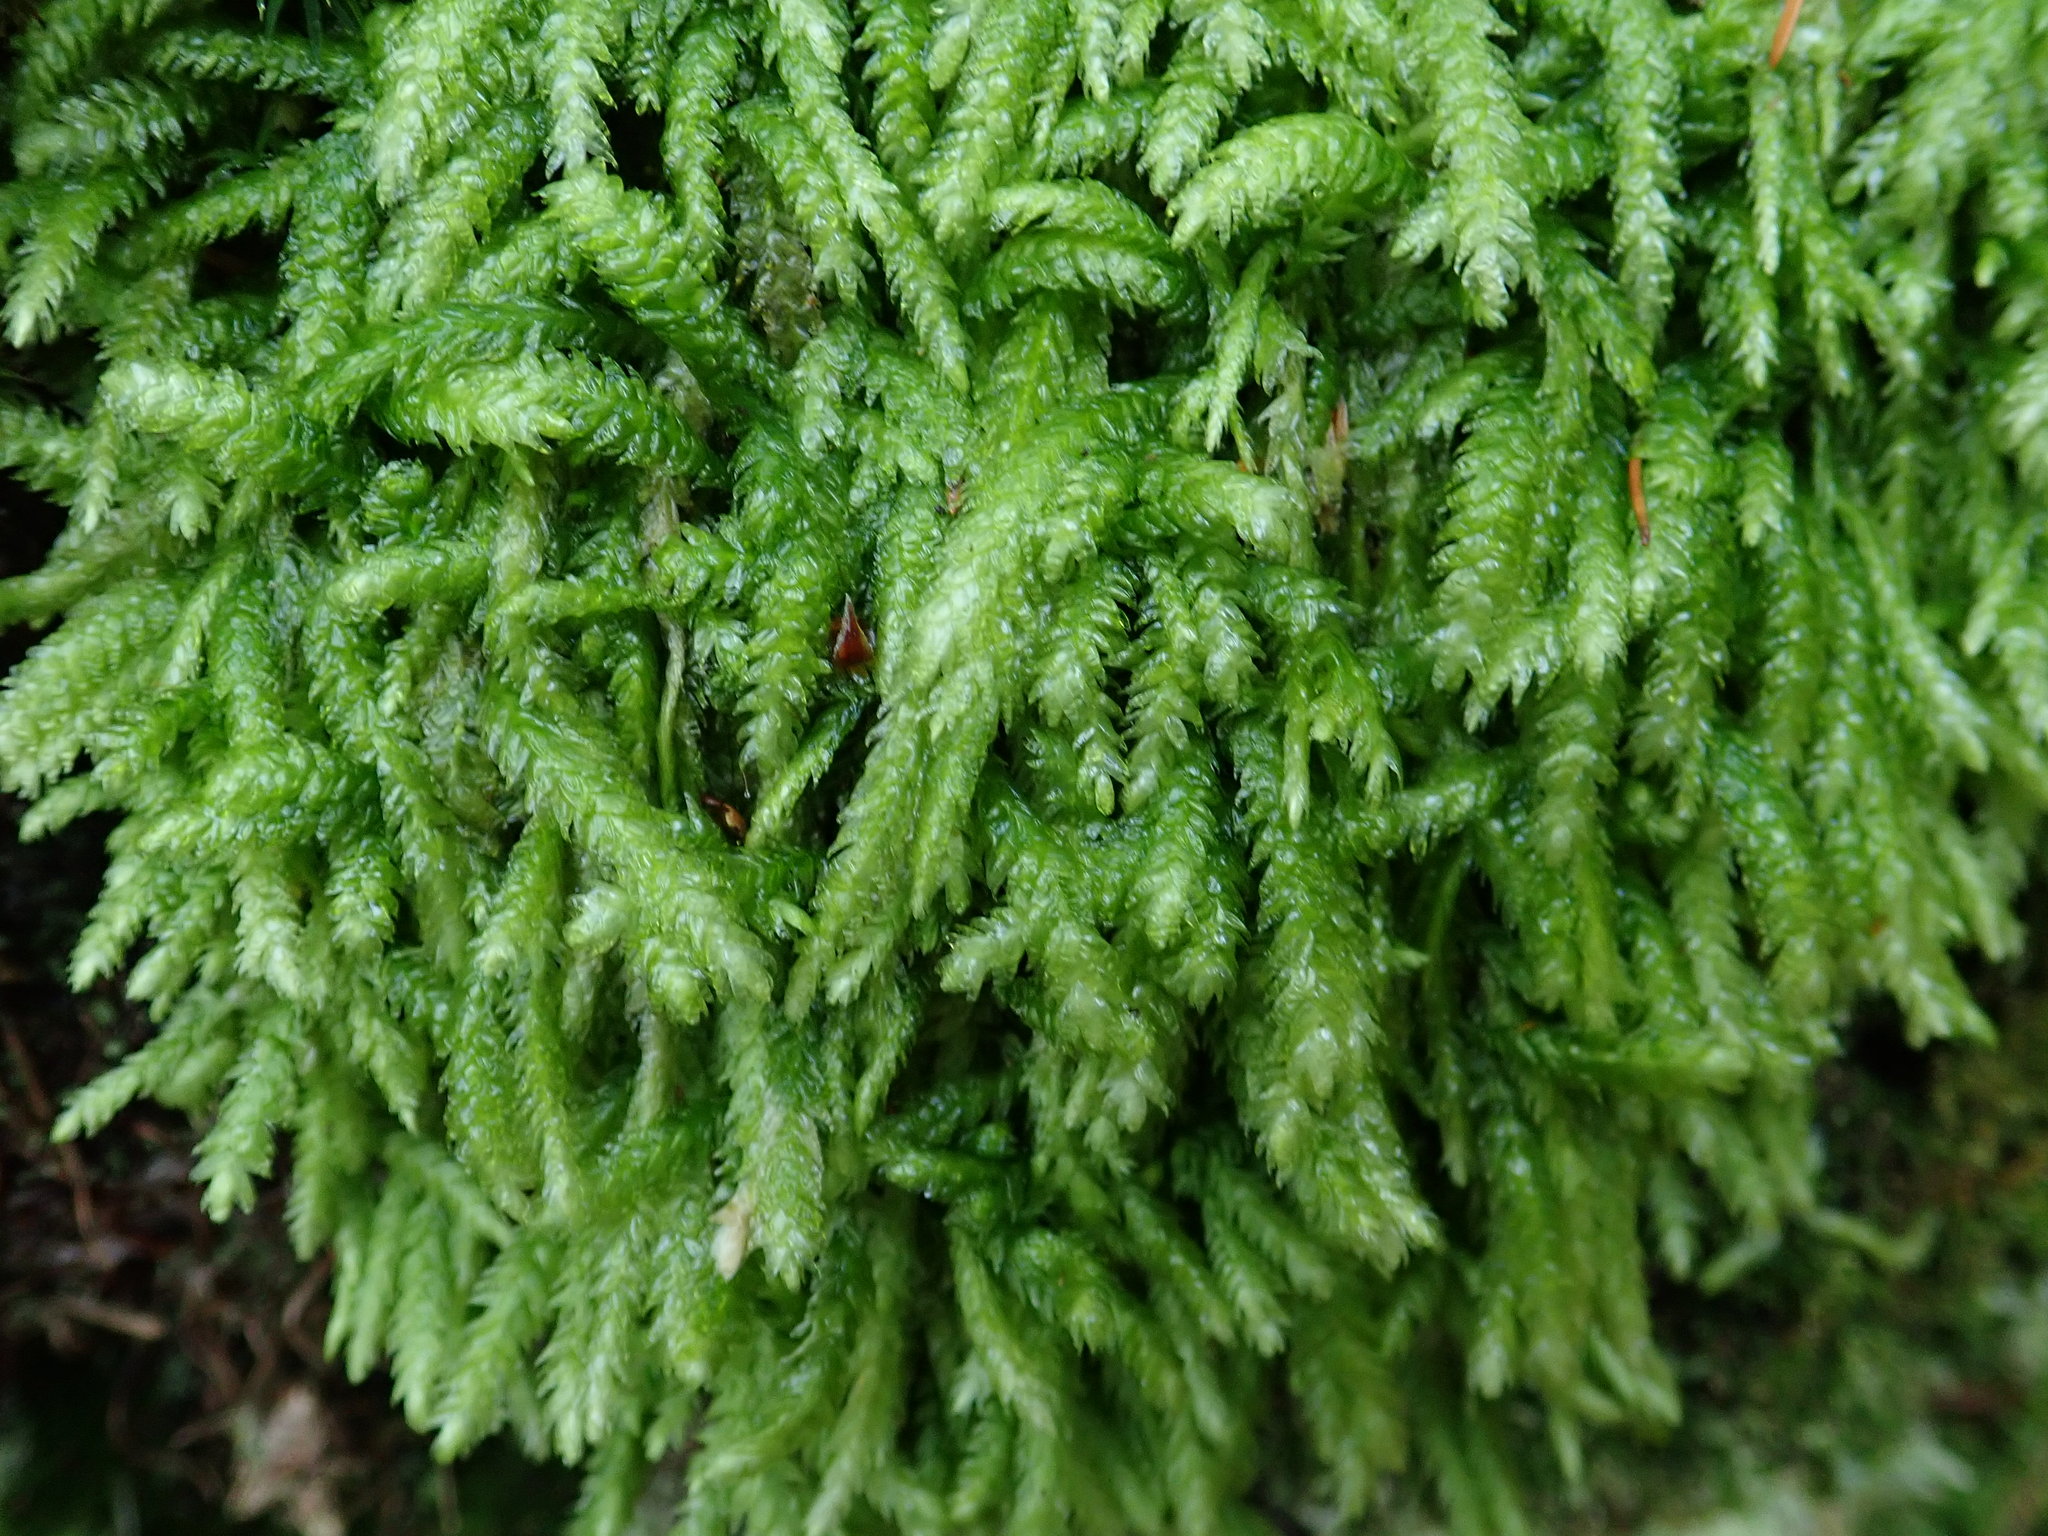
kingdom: Plantae
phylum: Bryophyta
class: Bryopsida
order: Hypnales
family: Plagiotheciaceae
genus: Plagiothecium
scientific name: Plagiothecium undulatum
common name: Waved silk-moss
